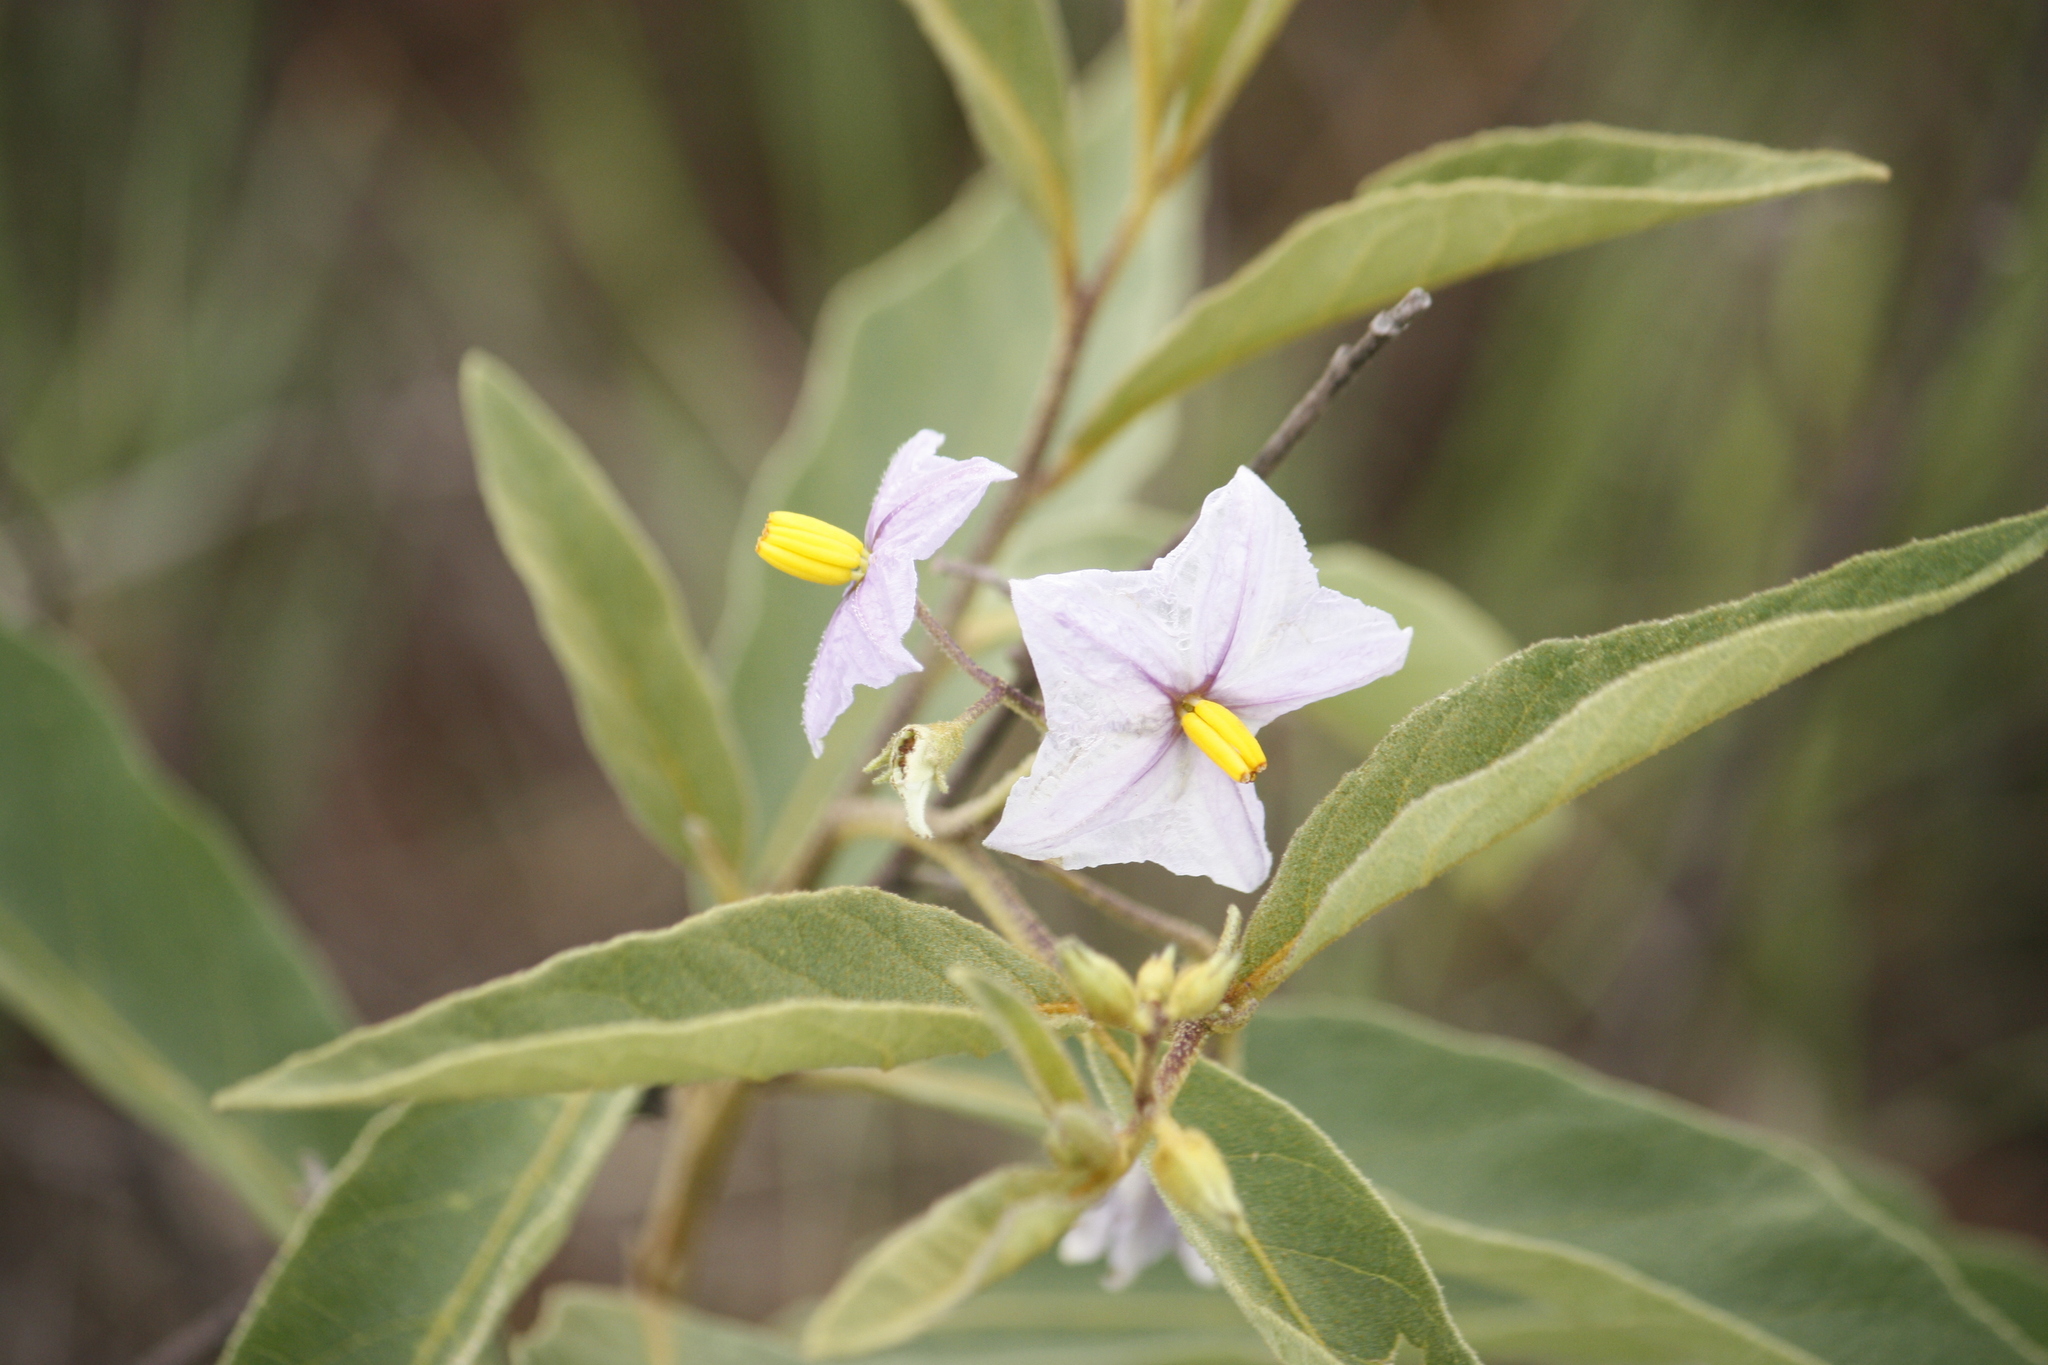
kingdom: Plantae
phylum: Tracheophyta
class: Magnoliopsida
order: Solanales
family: Solanaceae
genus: Solanum
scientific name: Solanum campylacanthum
